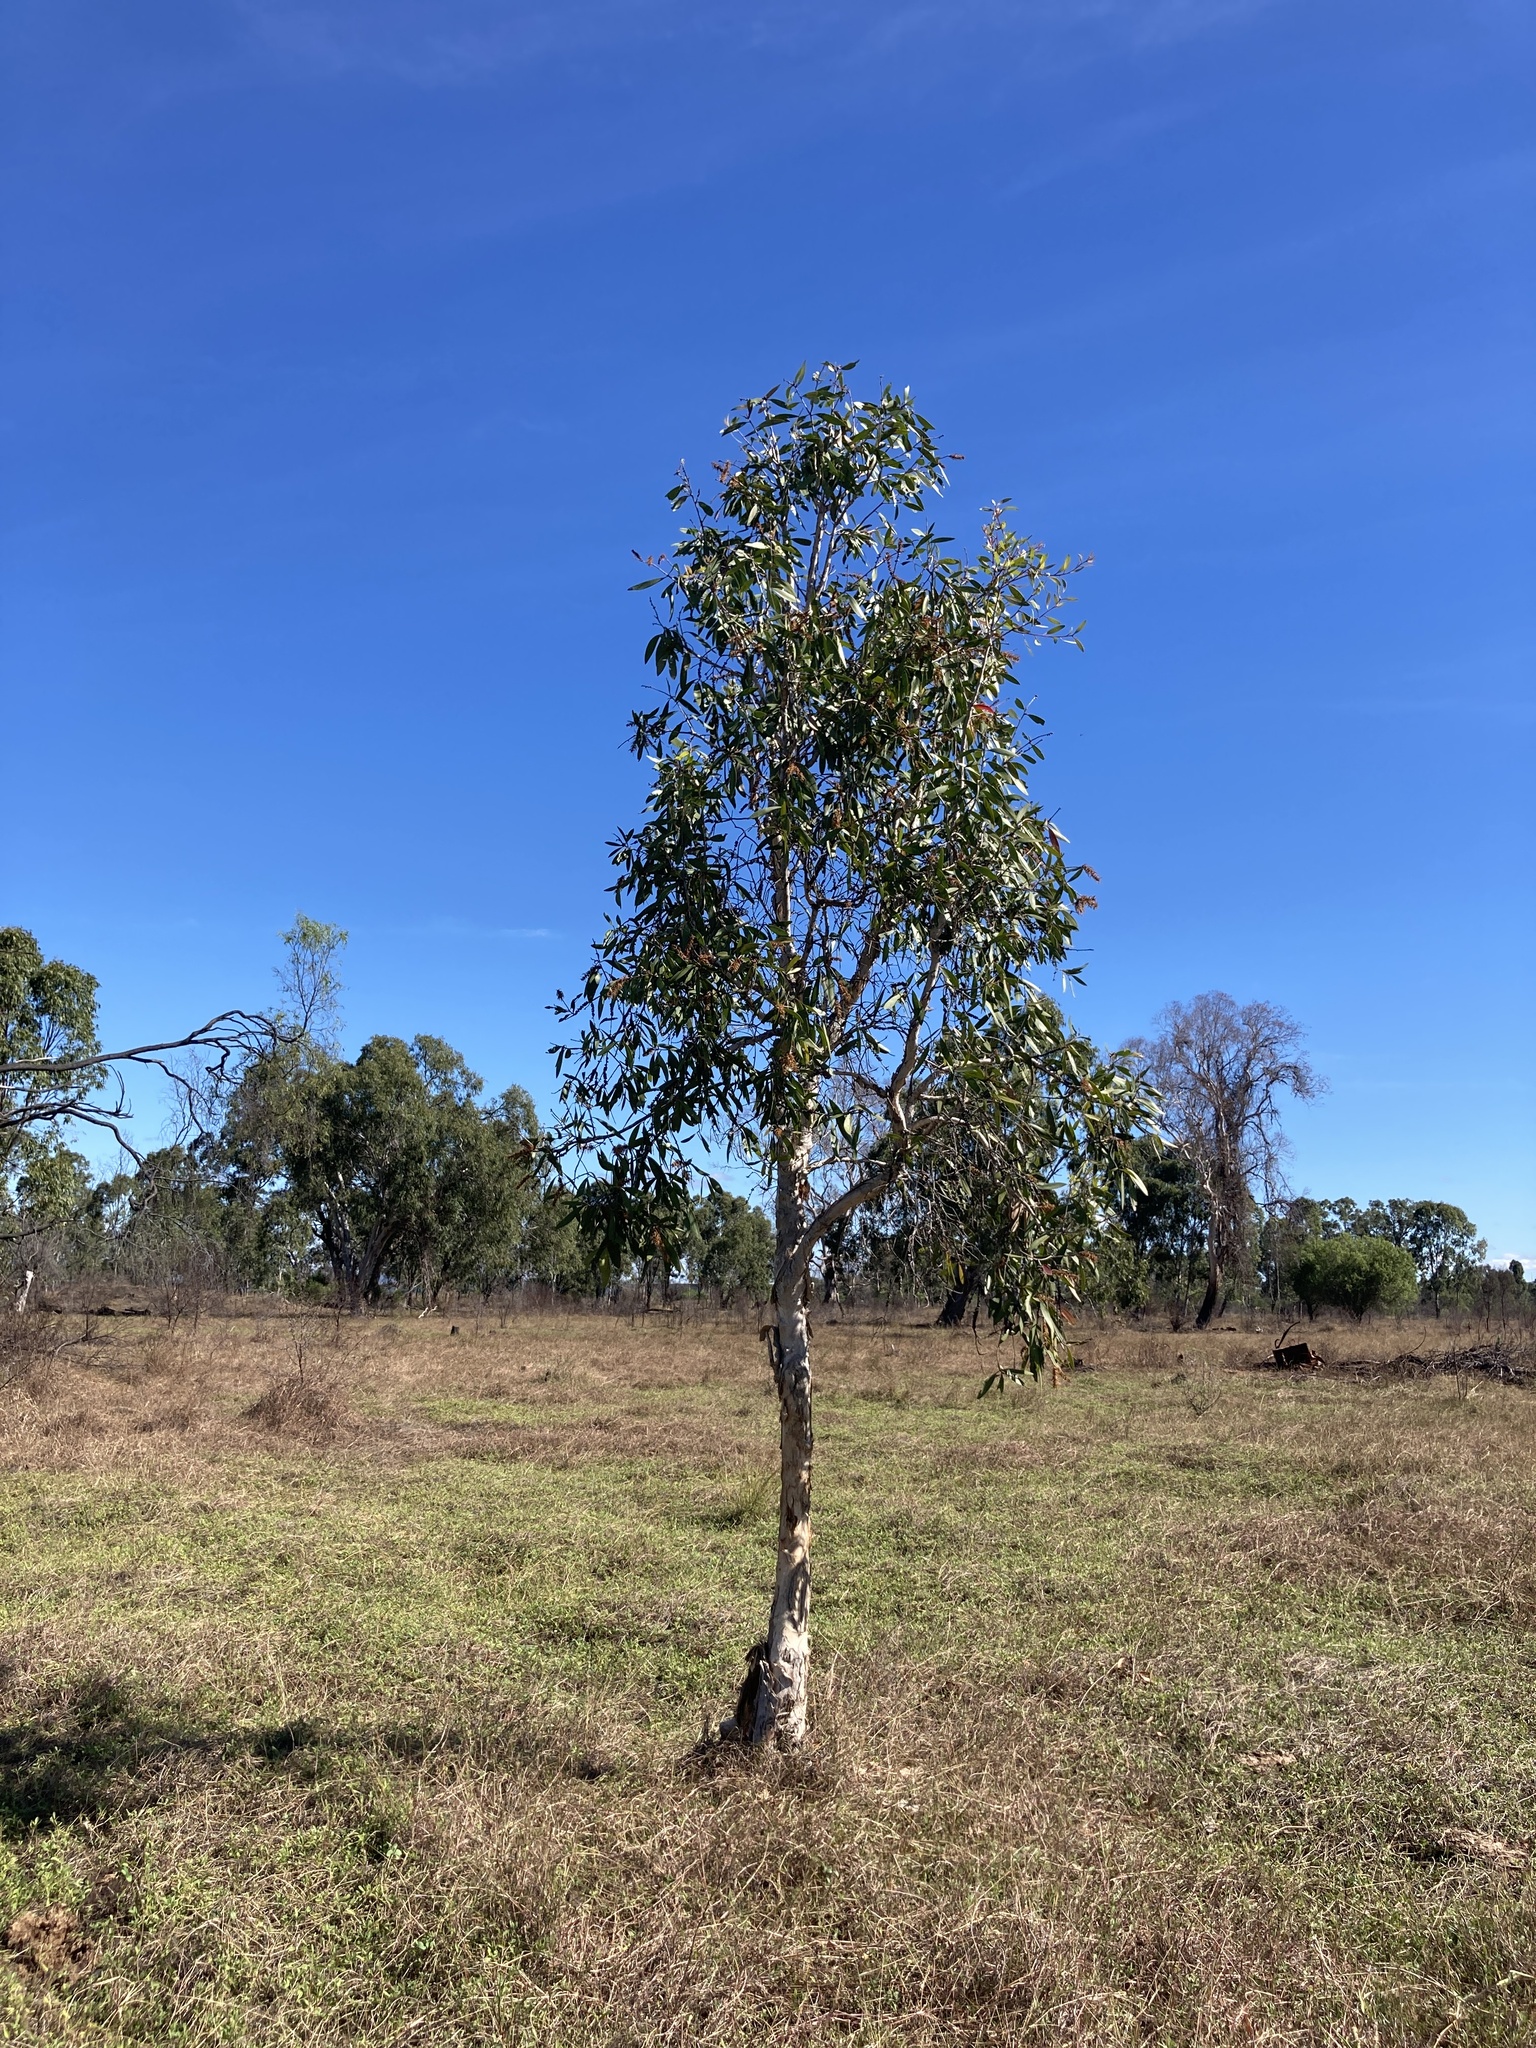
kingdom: Plantae
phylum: Tracheophyta
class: Magnoliopsida
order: Myrtales
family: Myrtaceae
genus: Melaleuca
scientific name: Melaleuca viridiflora
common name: Brown-leaved paperbark
